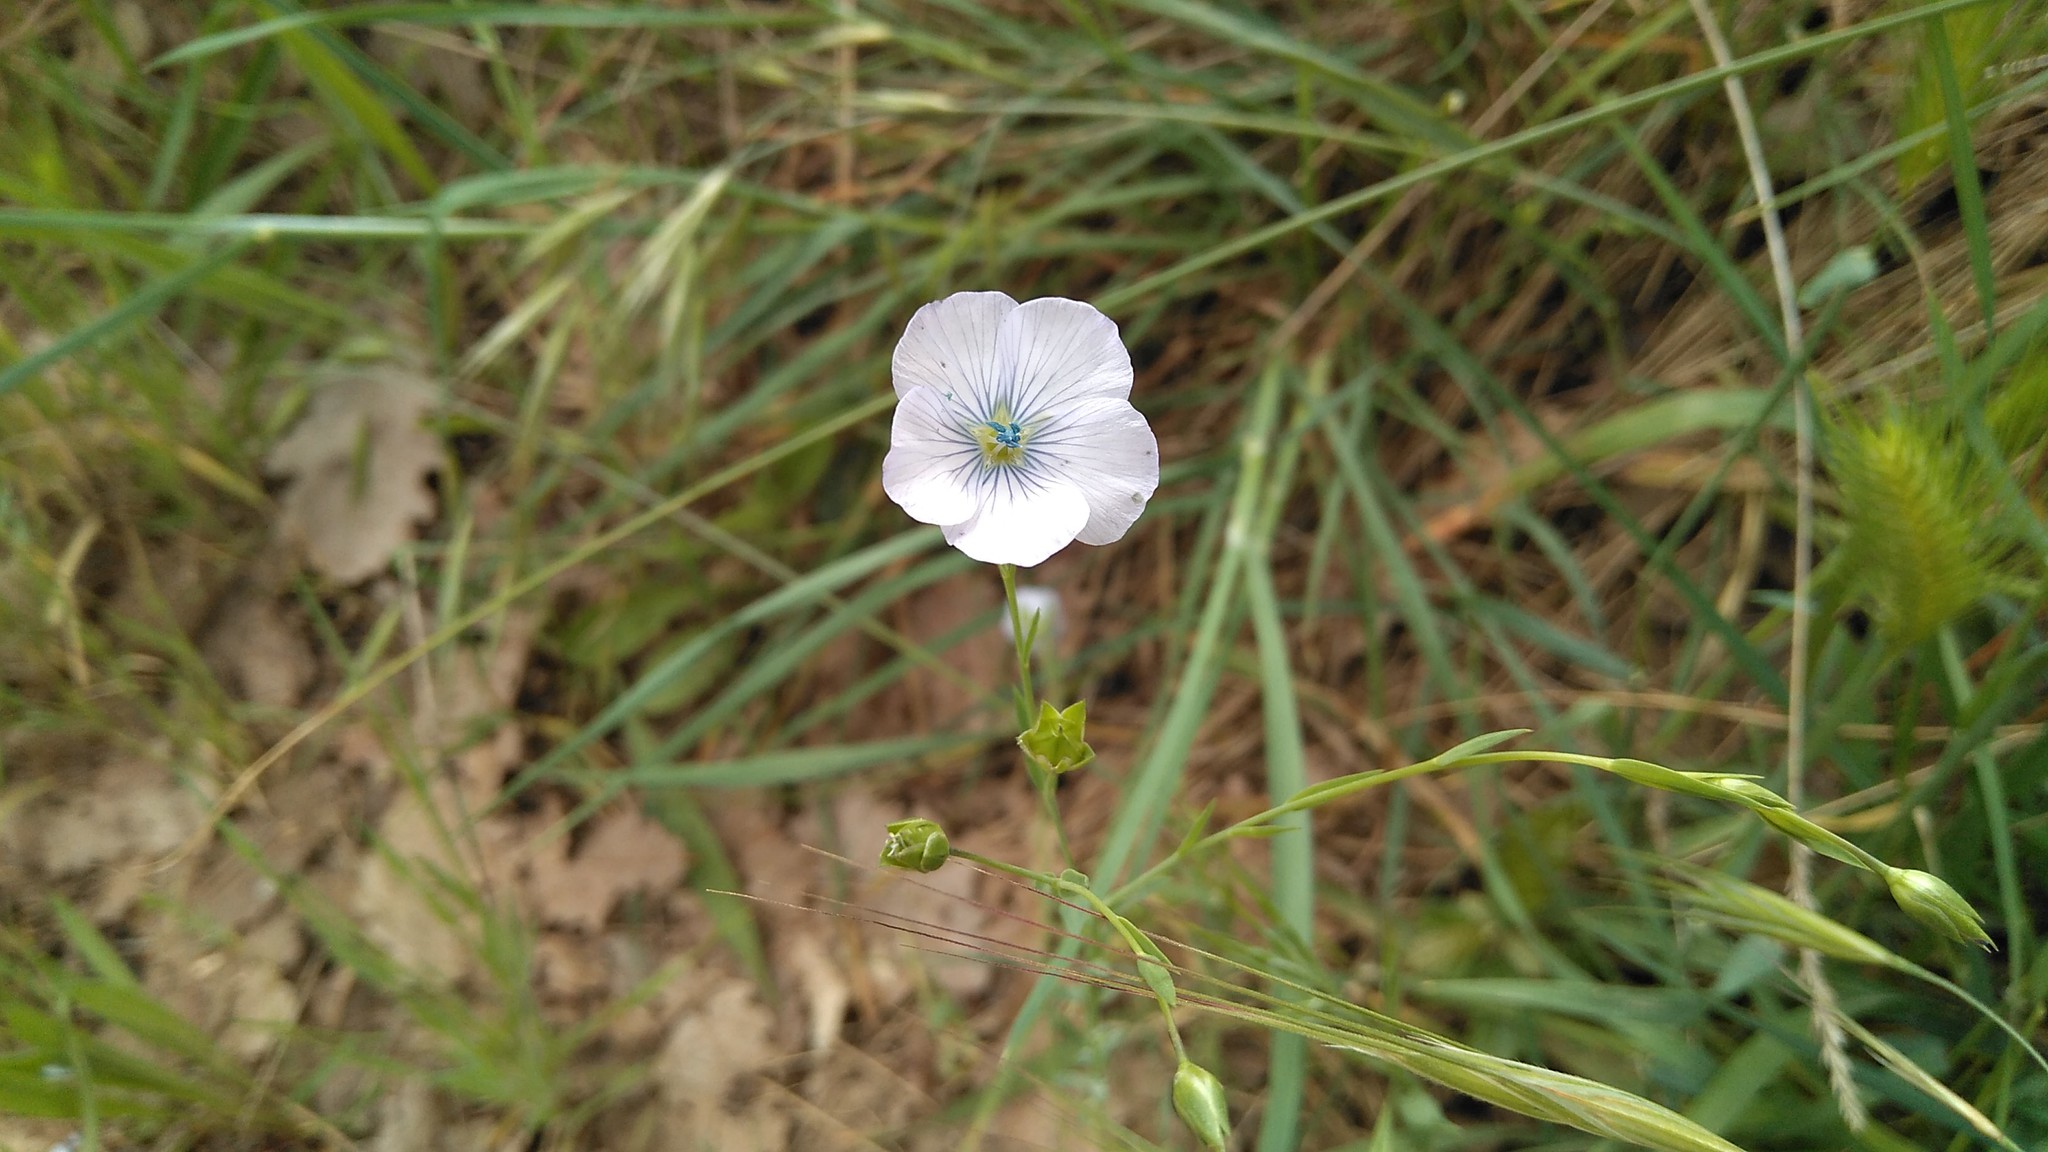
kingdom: Plantae
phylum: Tracheophyta
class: Magnoliopsida
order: Malpighiales
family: Linaceae
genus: Linum
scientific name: Linum bienne
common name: Pale flax
